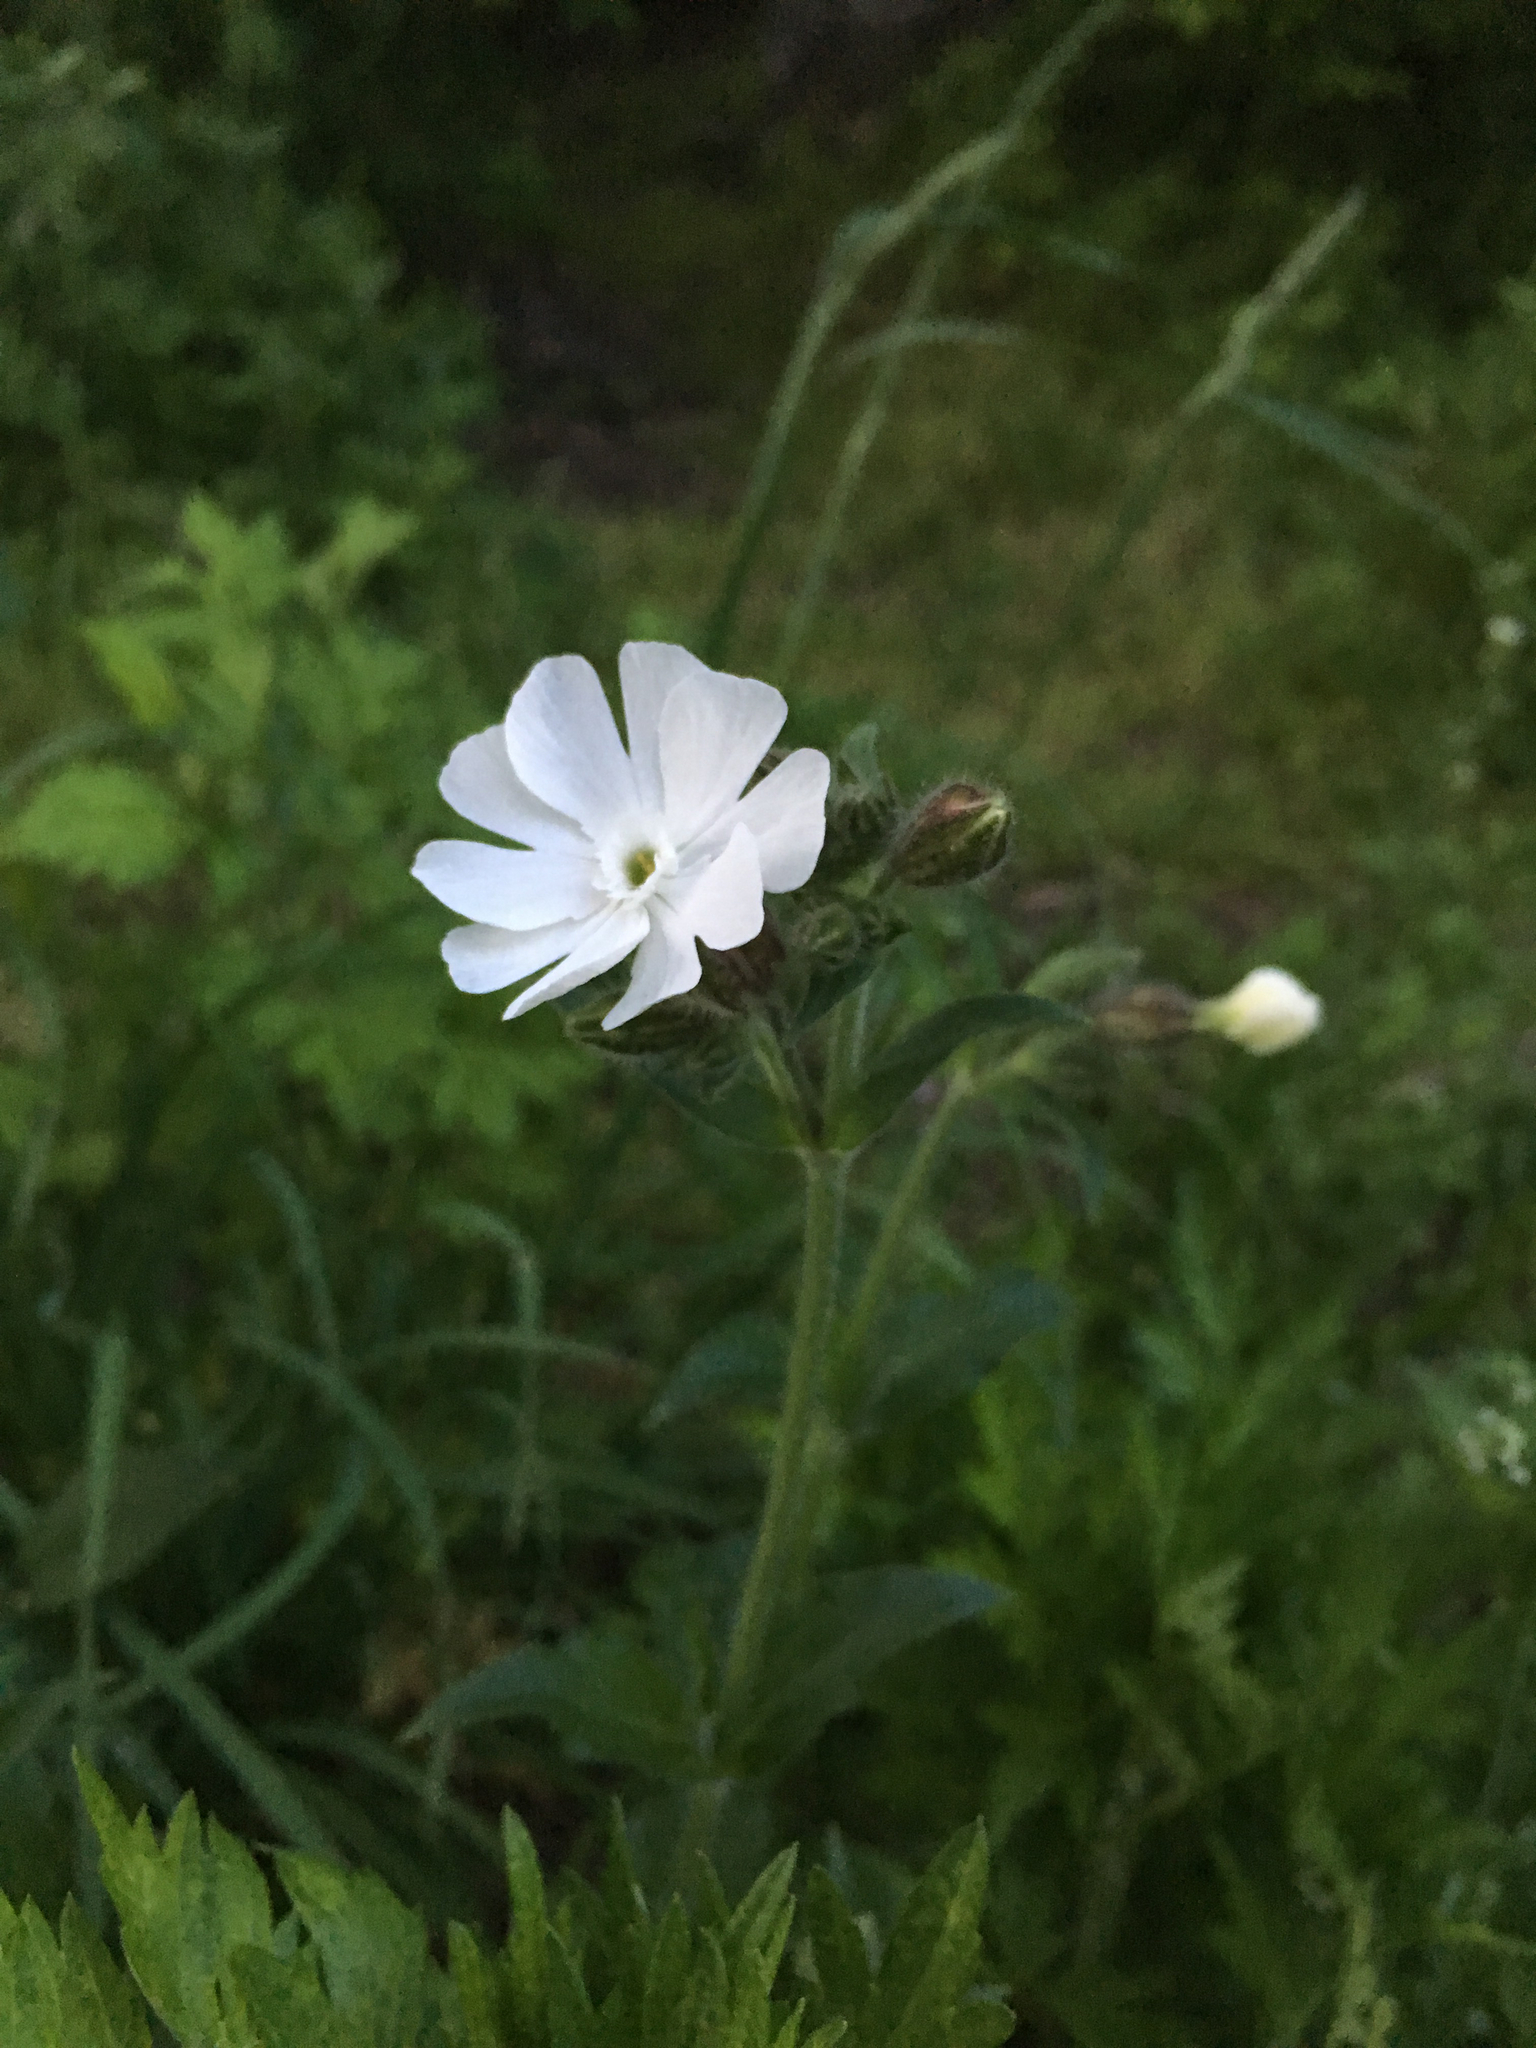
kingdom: Plantae
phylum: Tracheophyta
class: Magnoliopsida
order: Caryophyllales
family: Caryophyllaceae
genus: Silene
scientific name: Silene latifolia
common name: White campion
